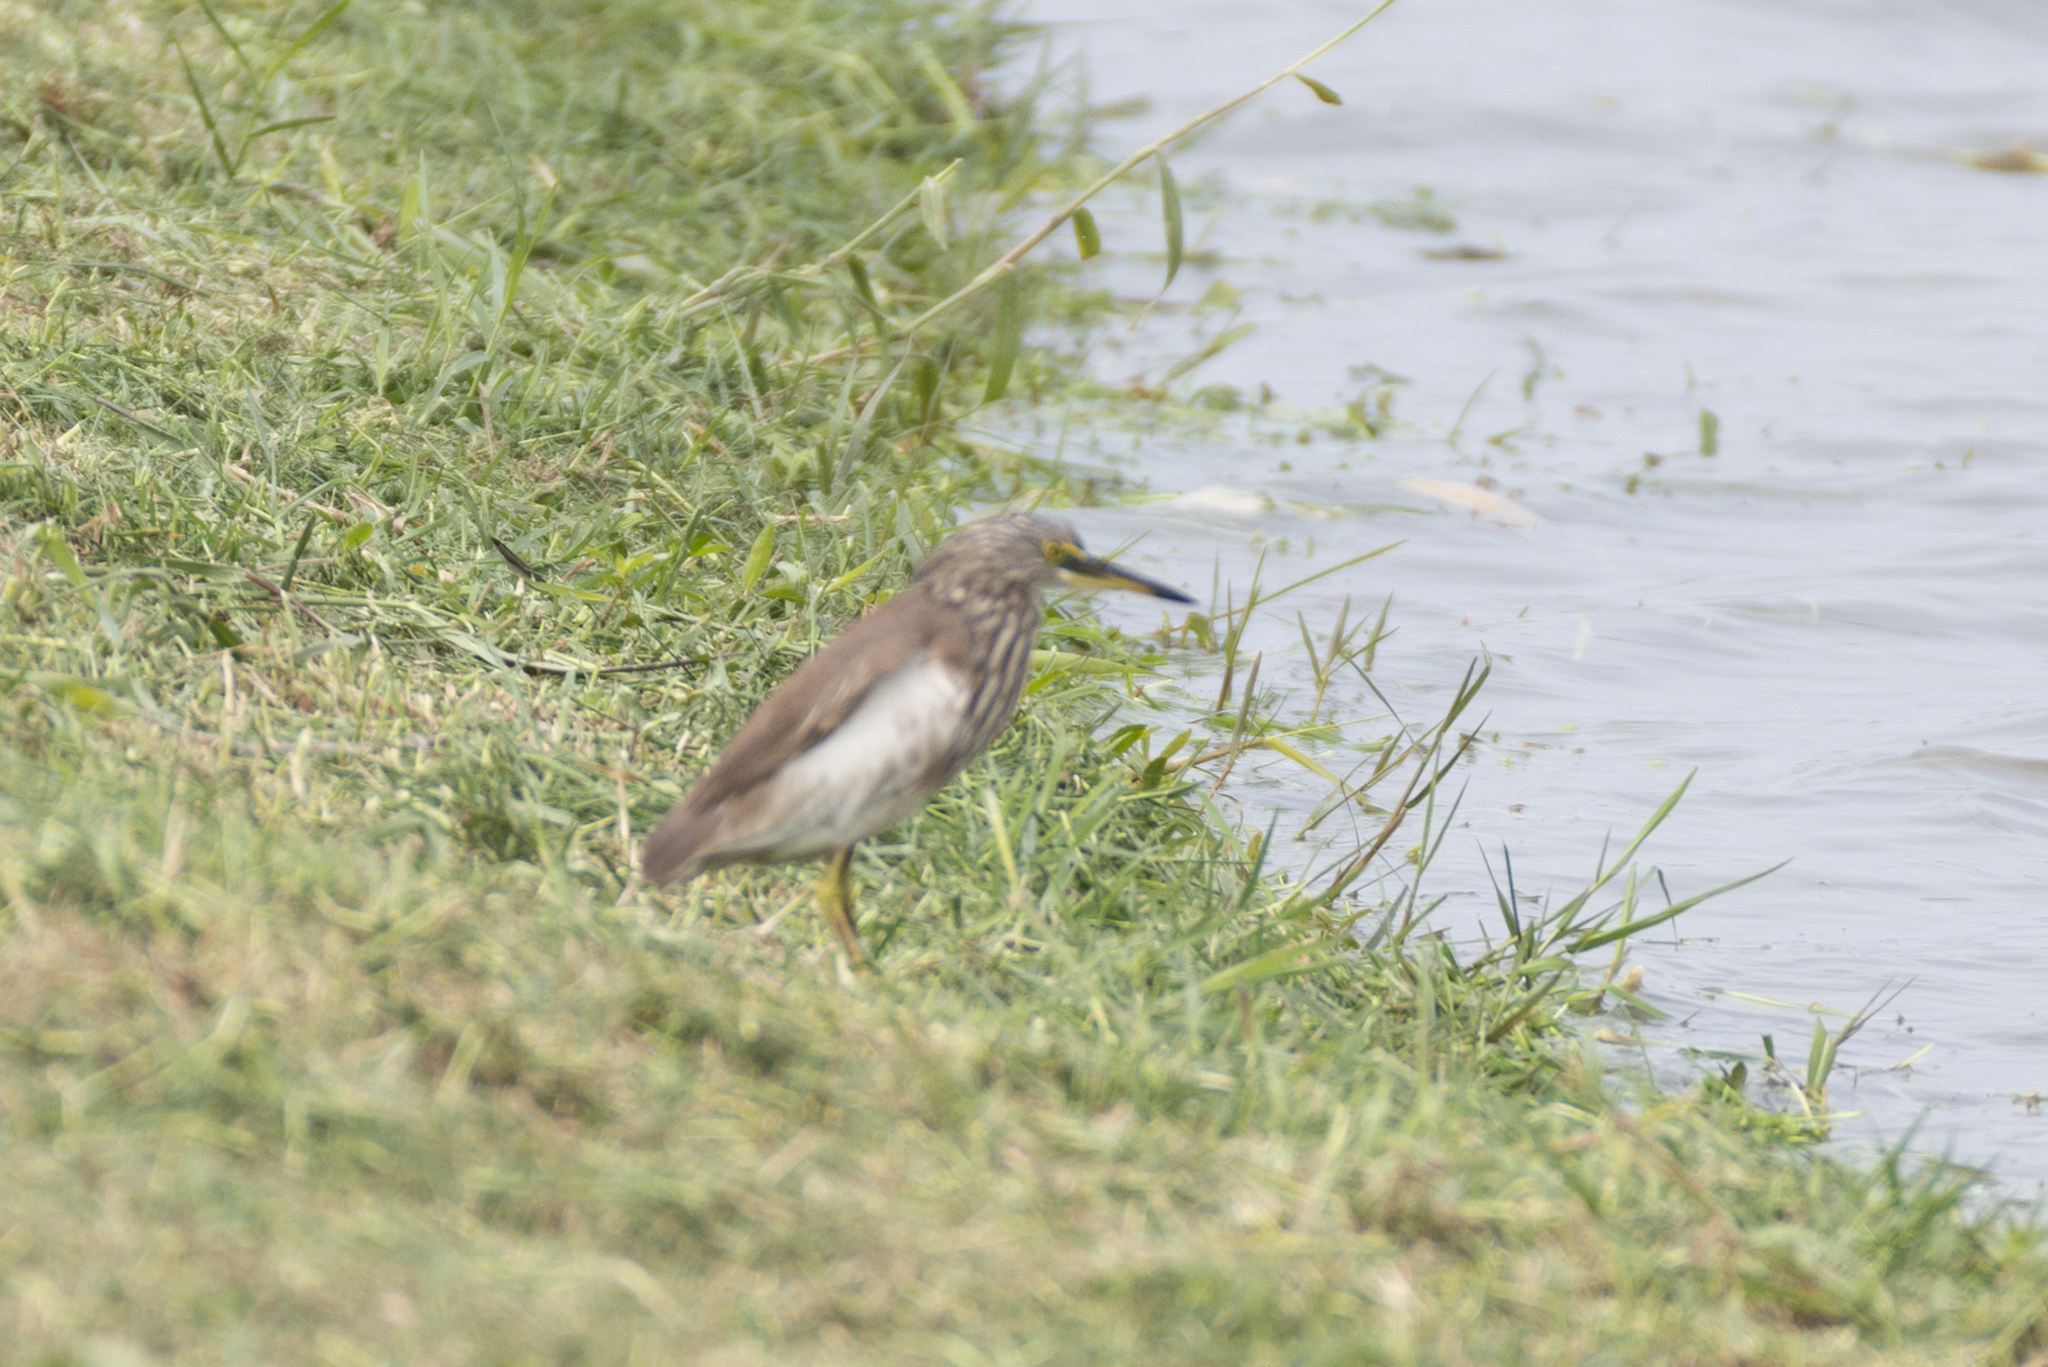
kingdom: Animalia
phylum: Chordata
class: Aves
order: Pelecaniformes
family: Ardeidae
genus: Ardeola
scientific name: Ardeola bacchus
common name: Chinese pond heron
